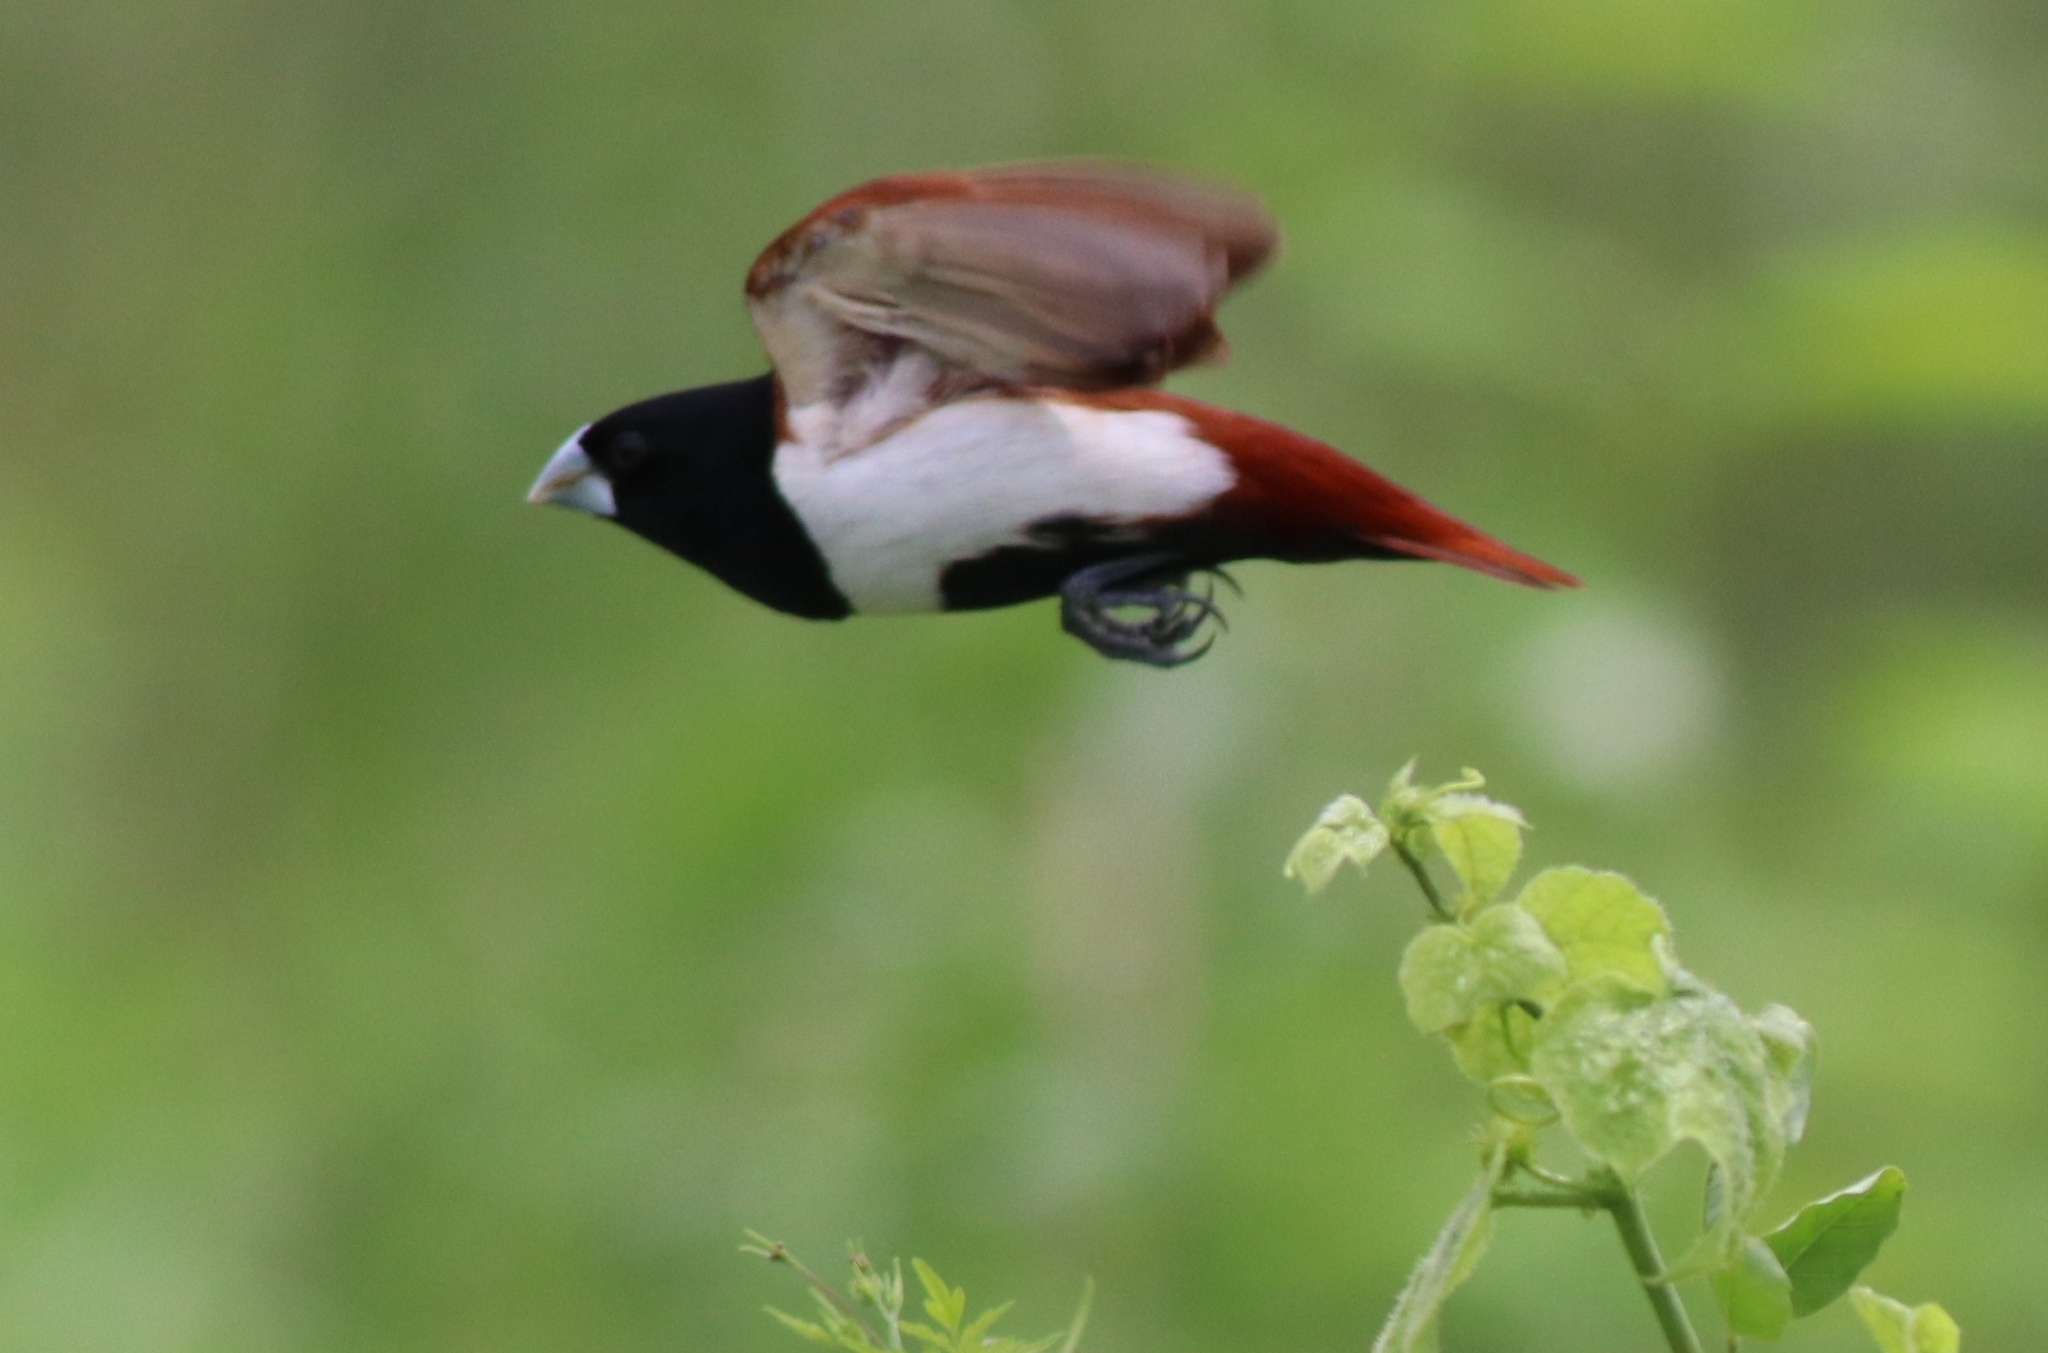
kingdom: Animalia
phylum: Chordata
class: Aves
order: Passeriformes
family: Estrildidae
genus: Lonchura
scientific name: Lonchura malacca
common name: Tricolored munia
